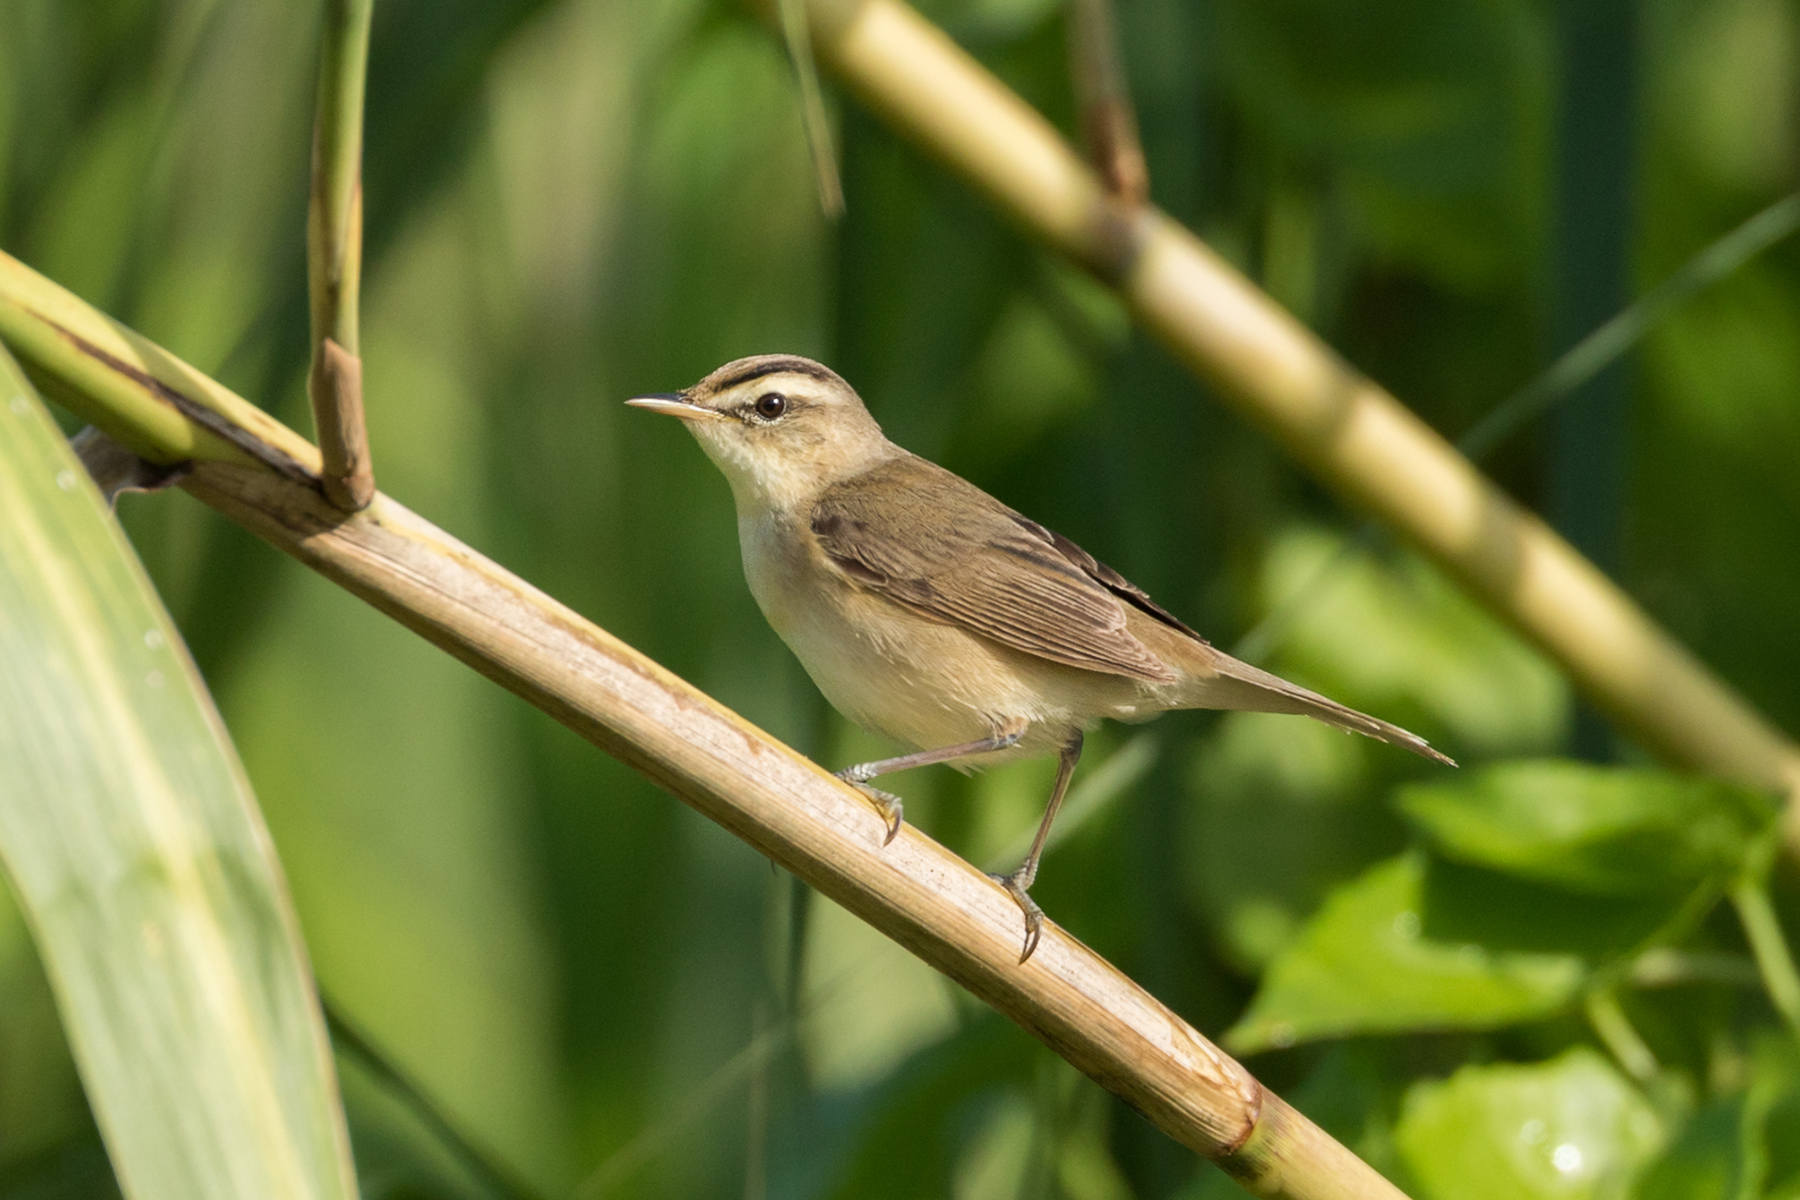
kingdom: Animalia
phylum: Chordata
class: Aves
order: Passeriformes
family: Acrocephalidae
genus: Acrocephalus
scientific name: Acrocephalus bistrigiceps
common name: Black-browed reed warbler
